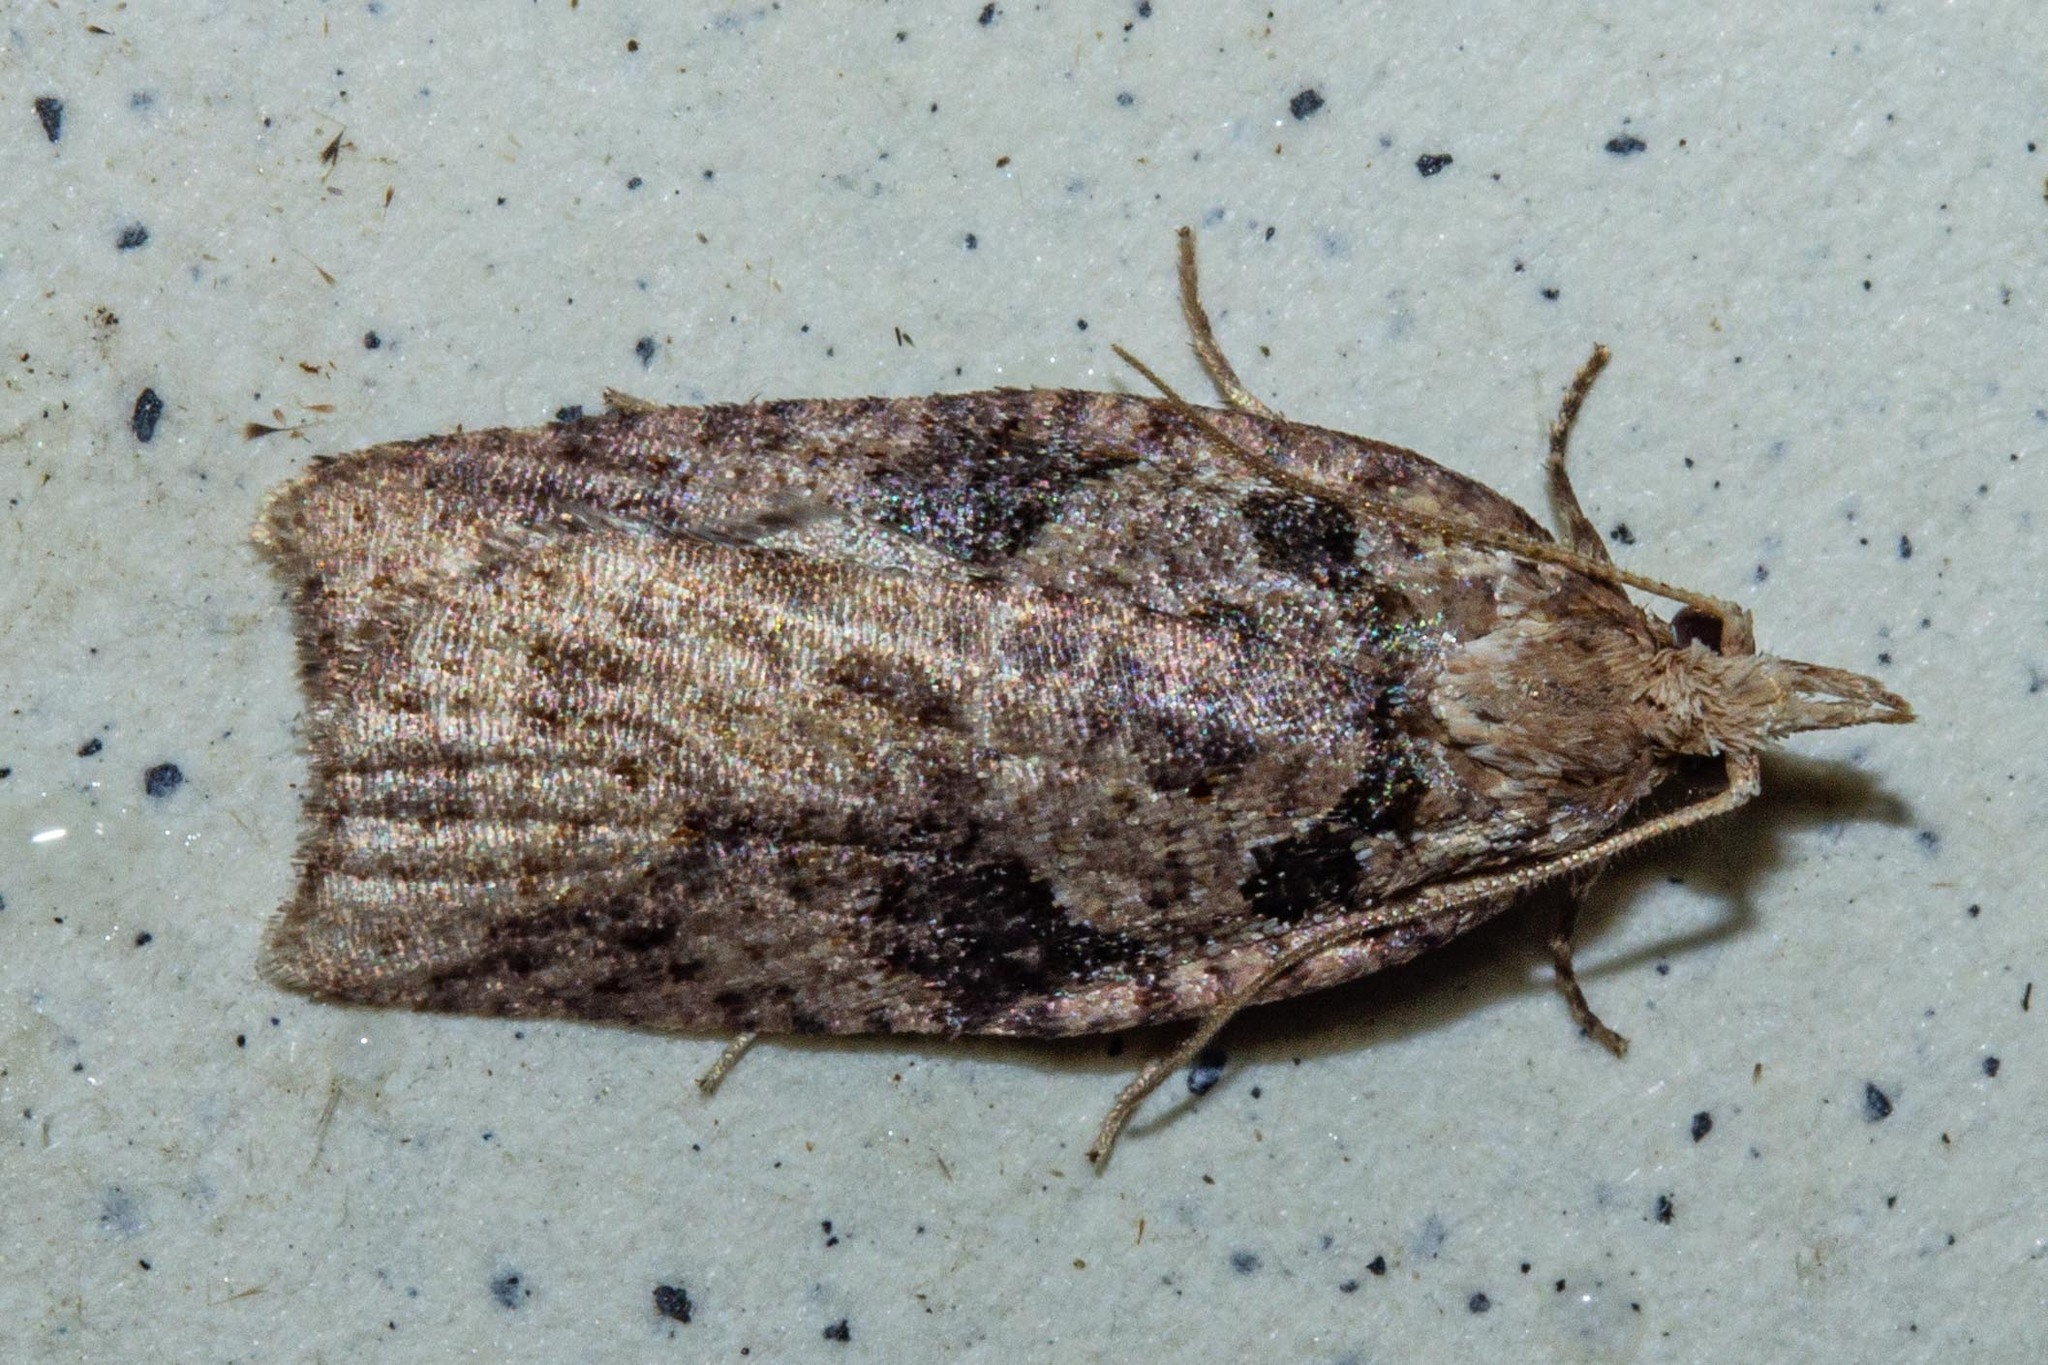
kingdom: Animalia
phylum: Arthropoda
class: Insecta
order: Lepidoptera
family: Tortricidae
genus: Ctenopseustis
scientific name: Ctenopseustis obliquana
